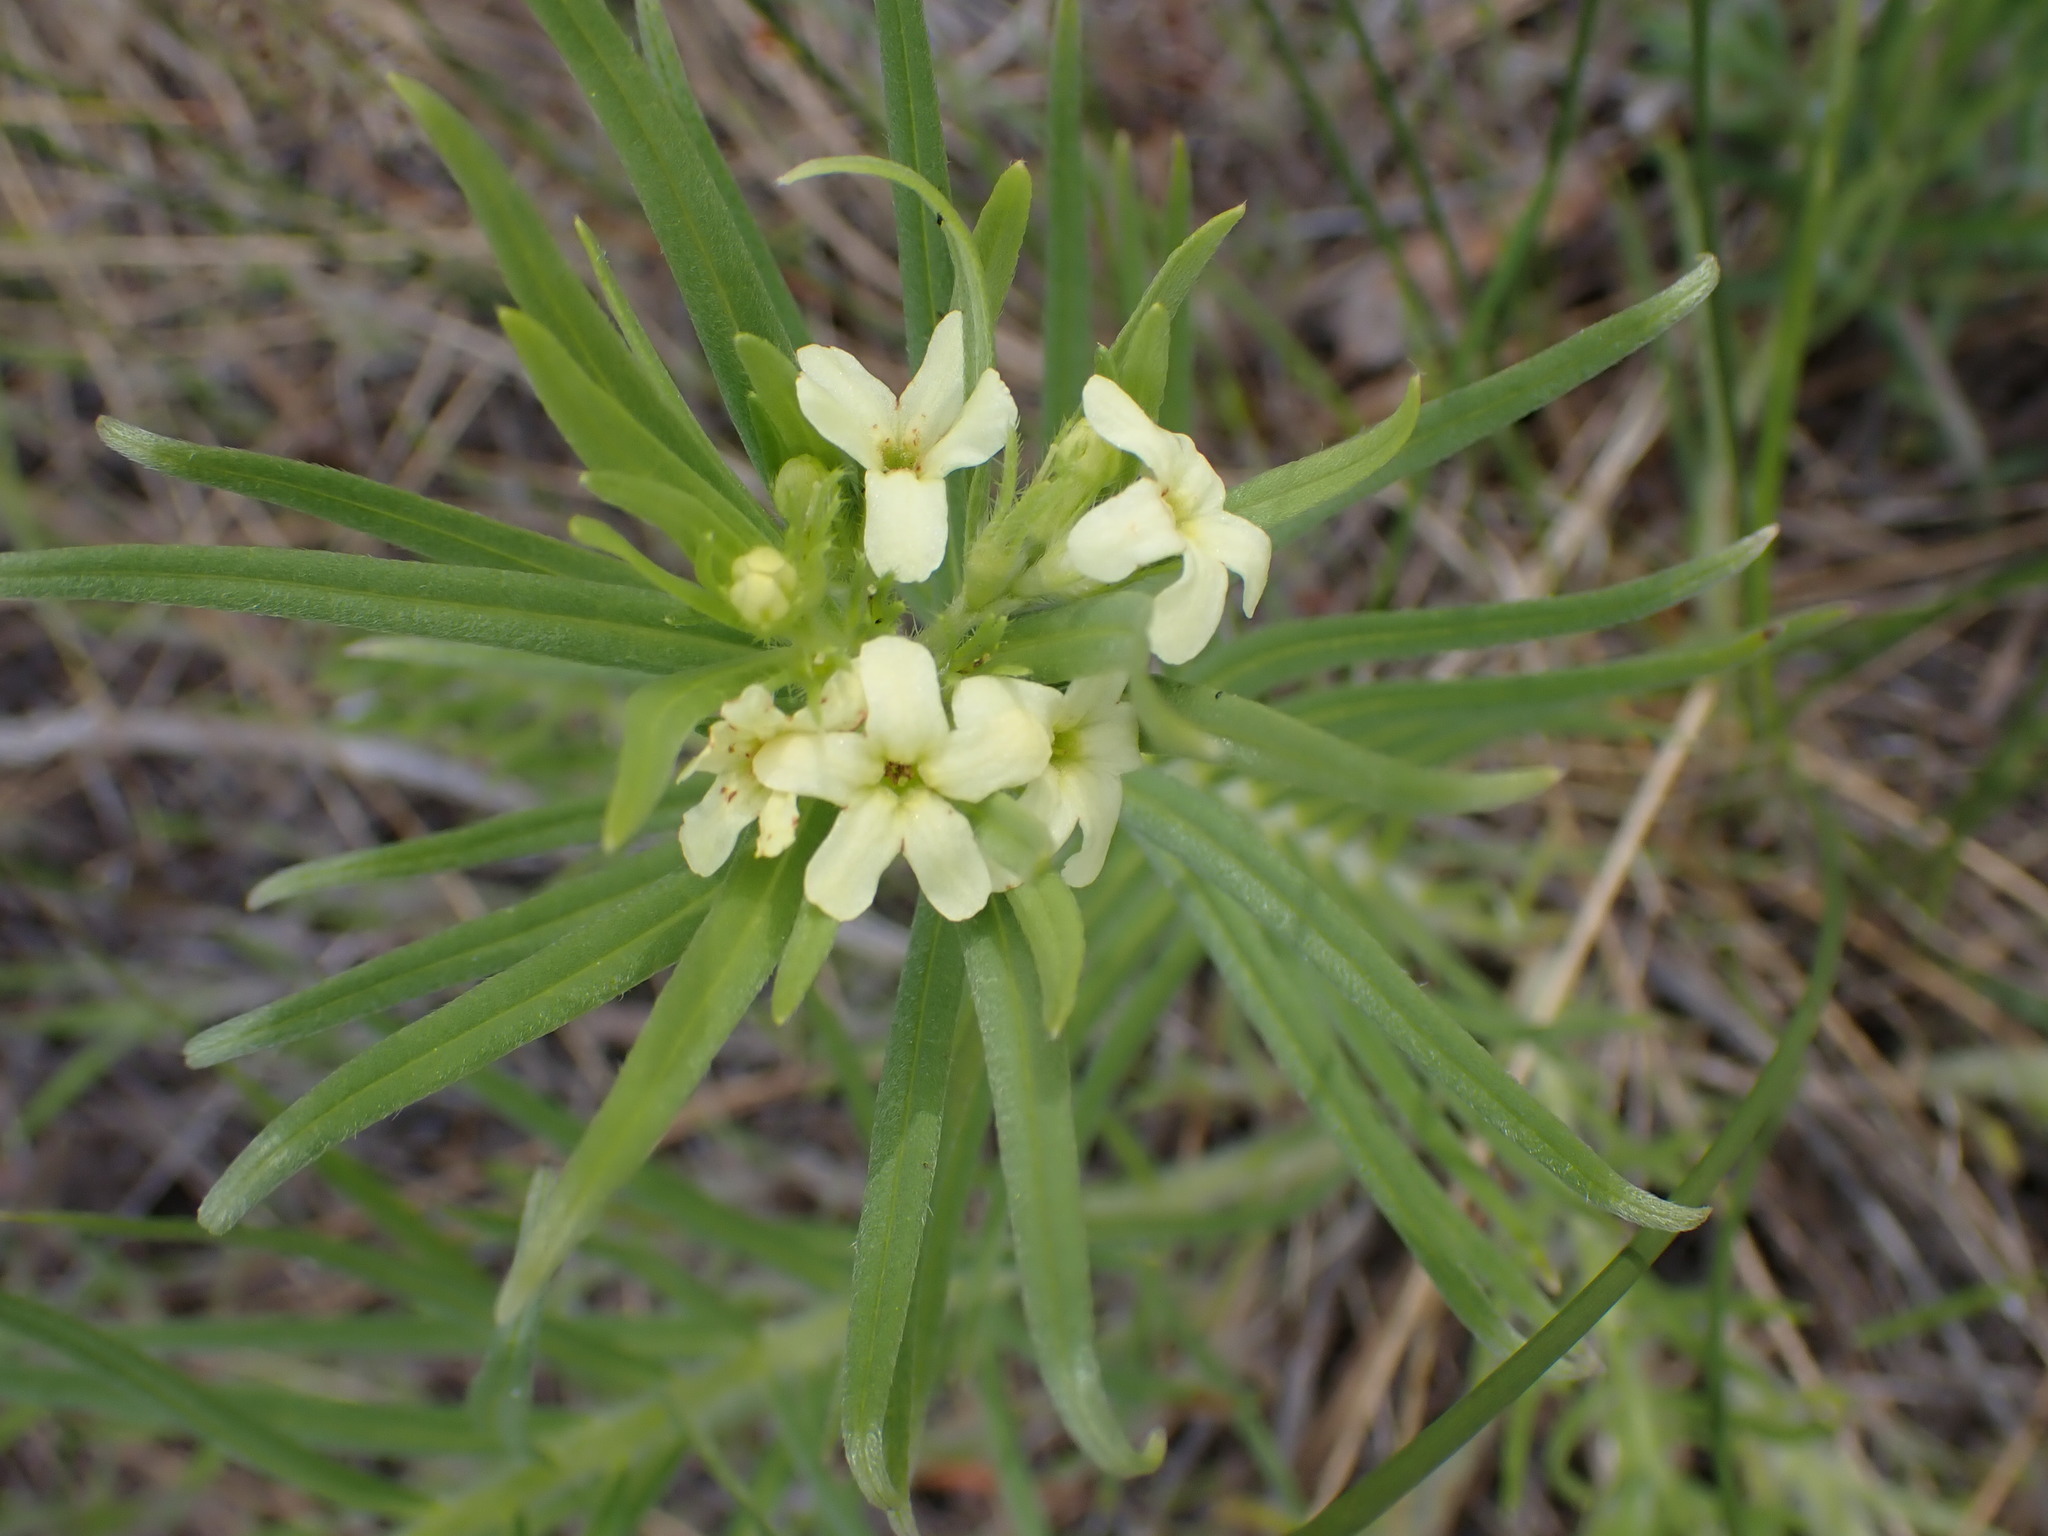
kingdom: Plantae
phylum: Tracheophyta
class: Magnoliopsida
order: Boraginales
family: Boraginaceae
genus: Lithospermum
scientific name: Lithospermum ruderale
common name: Western gromwell
